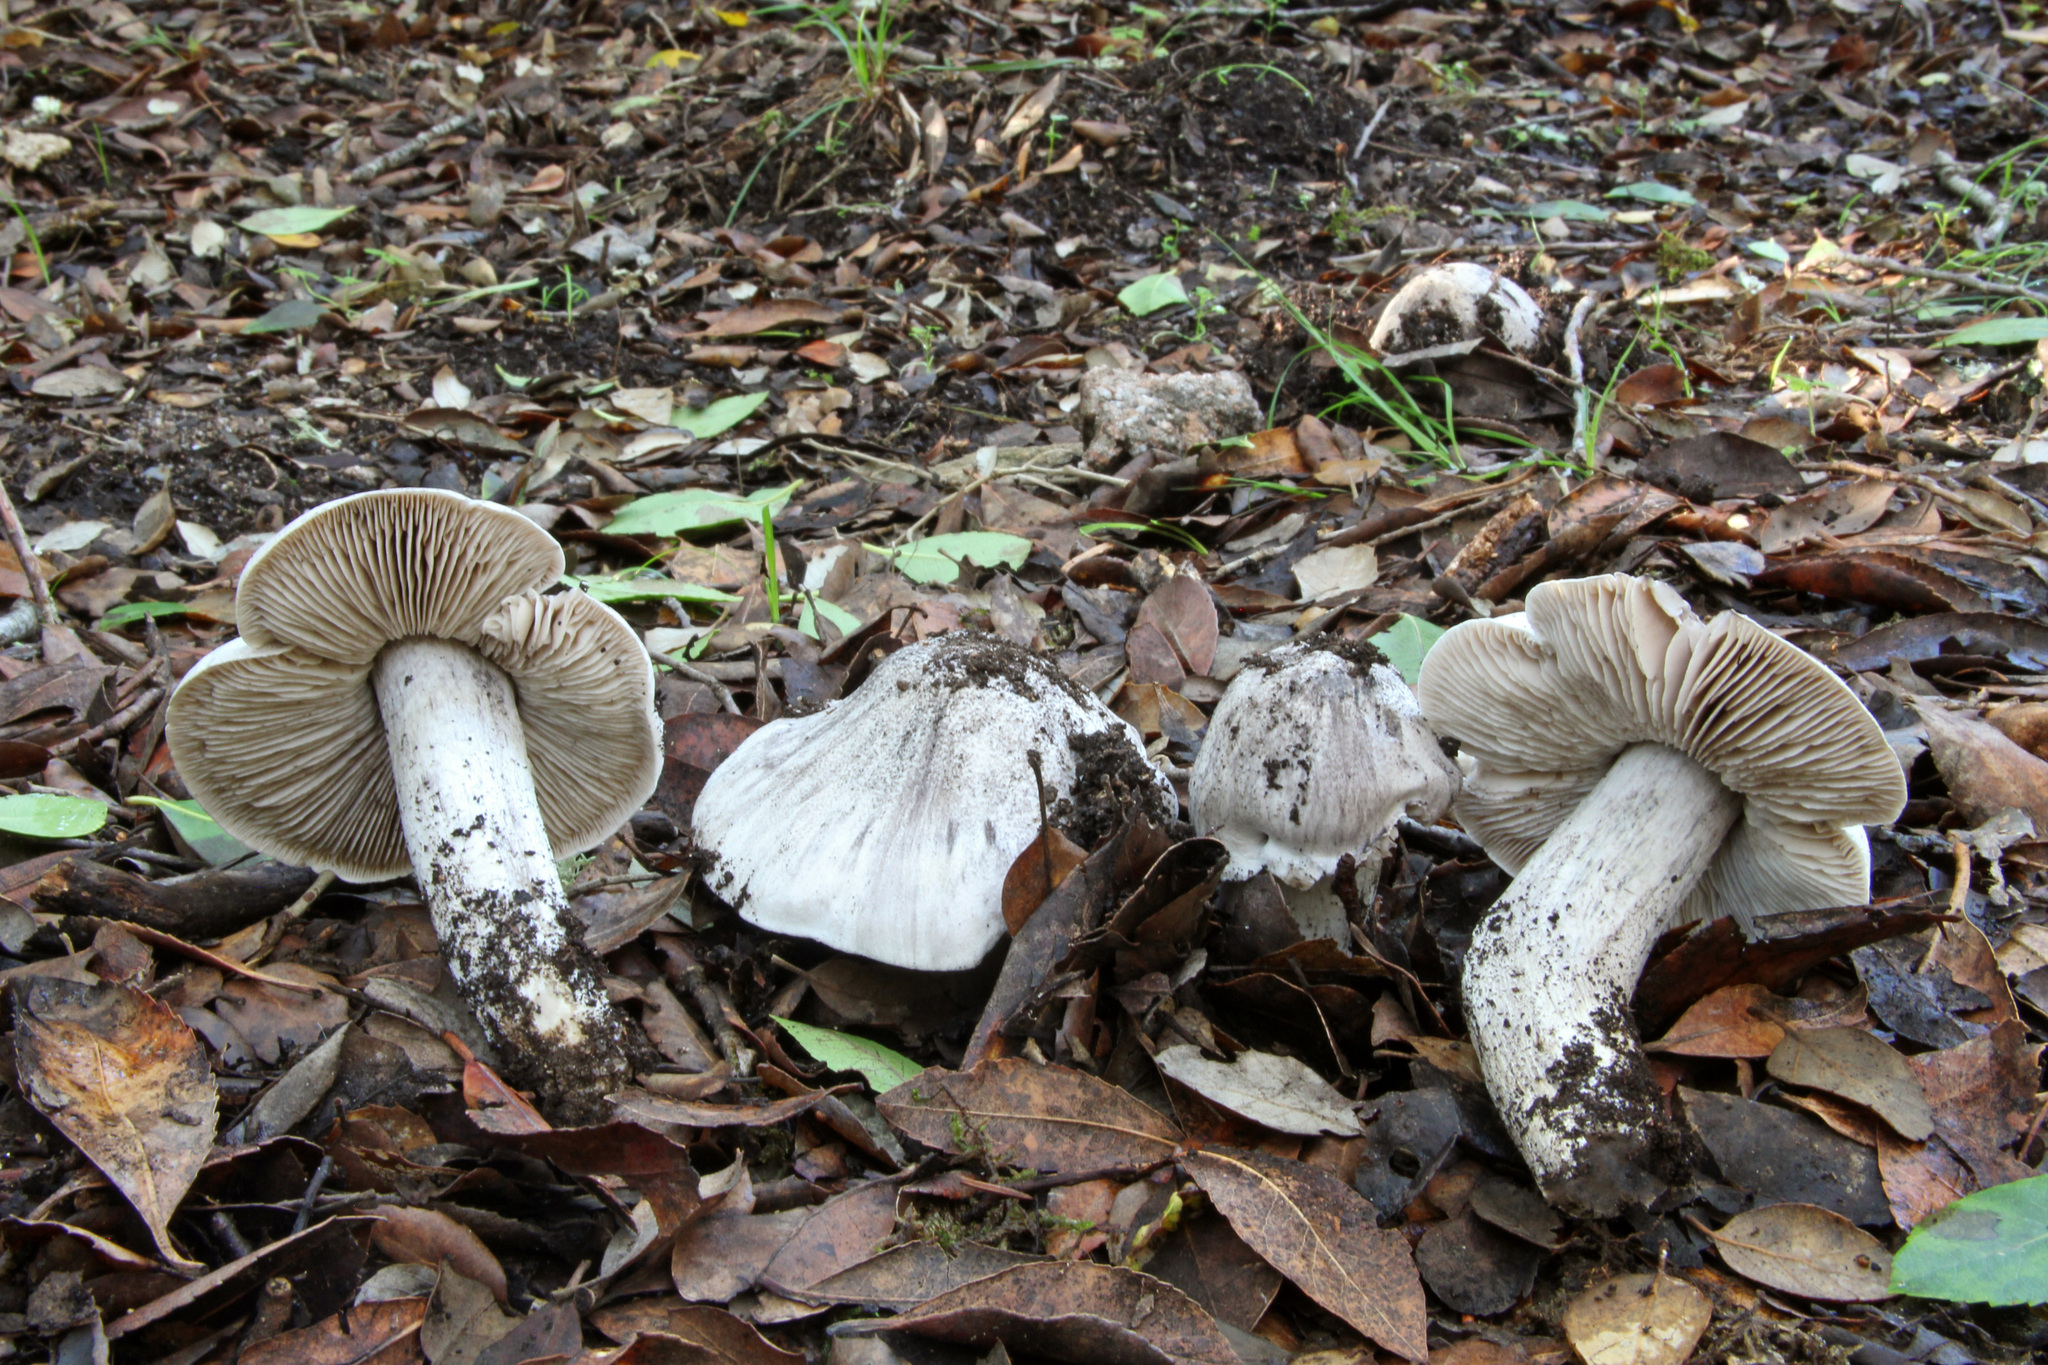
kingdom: Fungi
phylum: Basidiomycota
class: Agaricomycetes
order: Agaricales
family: Tricholomataceae
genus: Tricholoma
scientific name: Tricholoma bresadolanum
